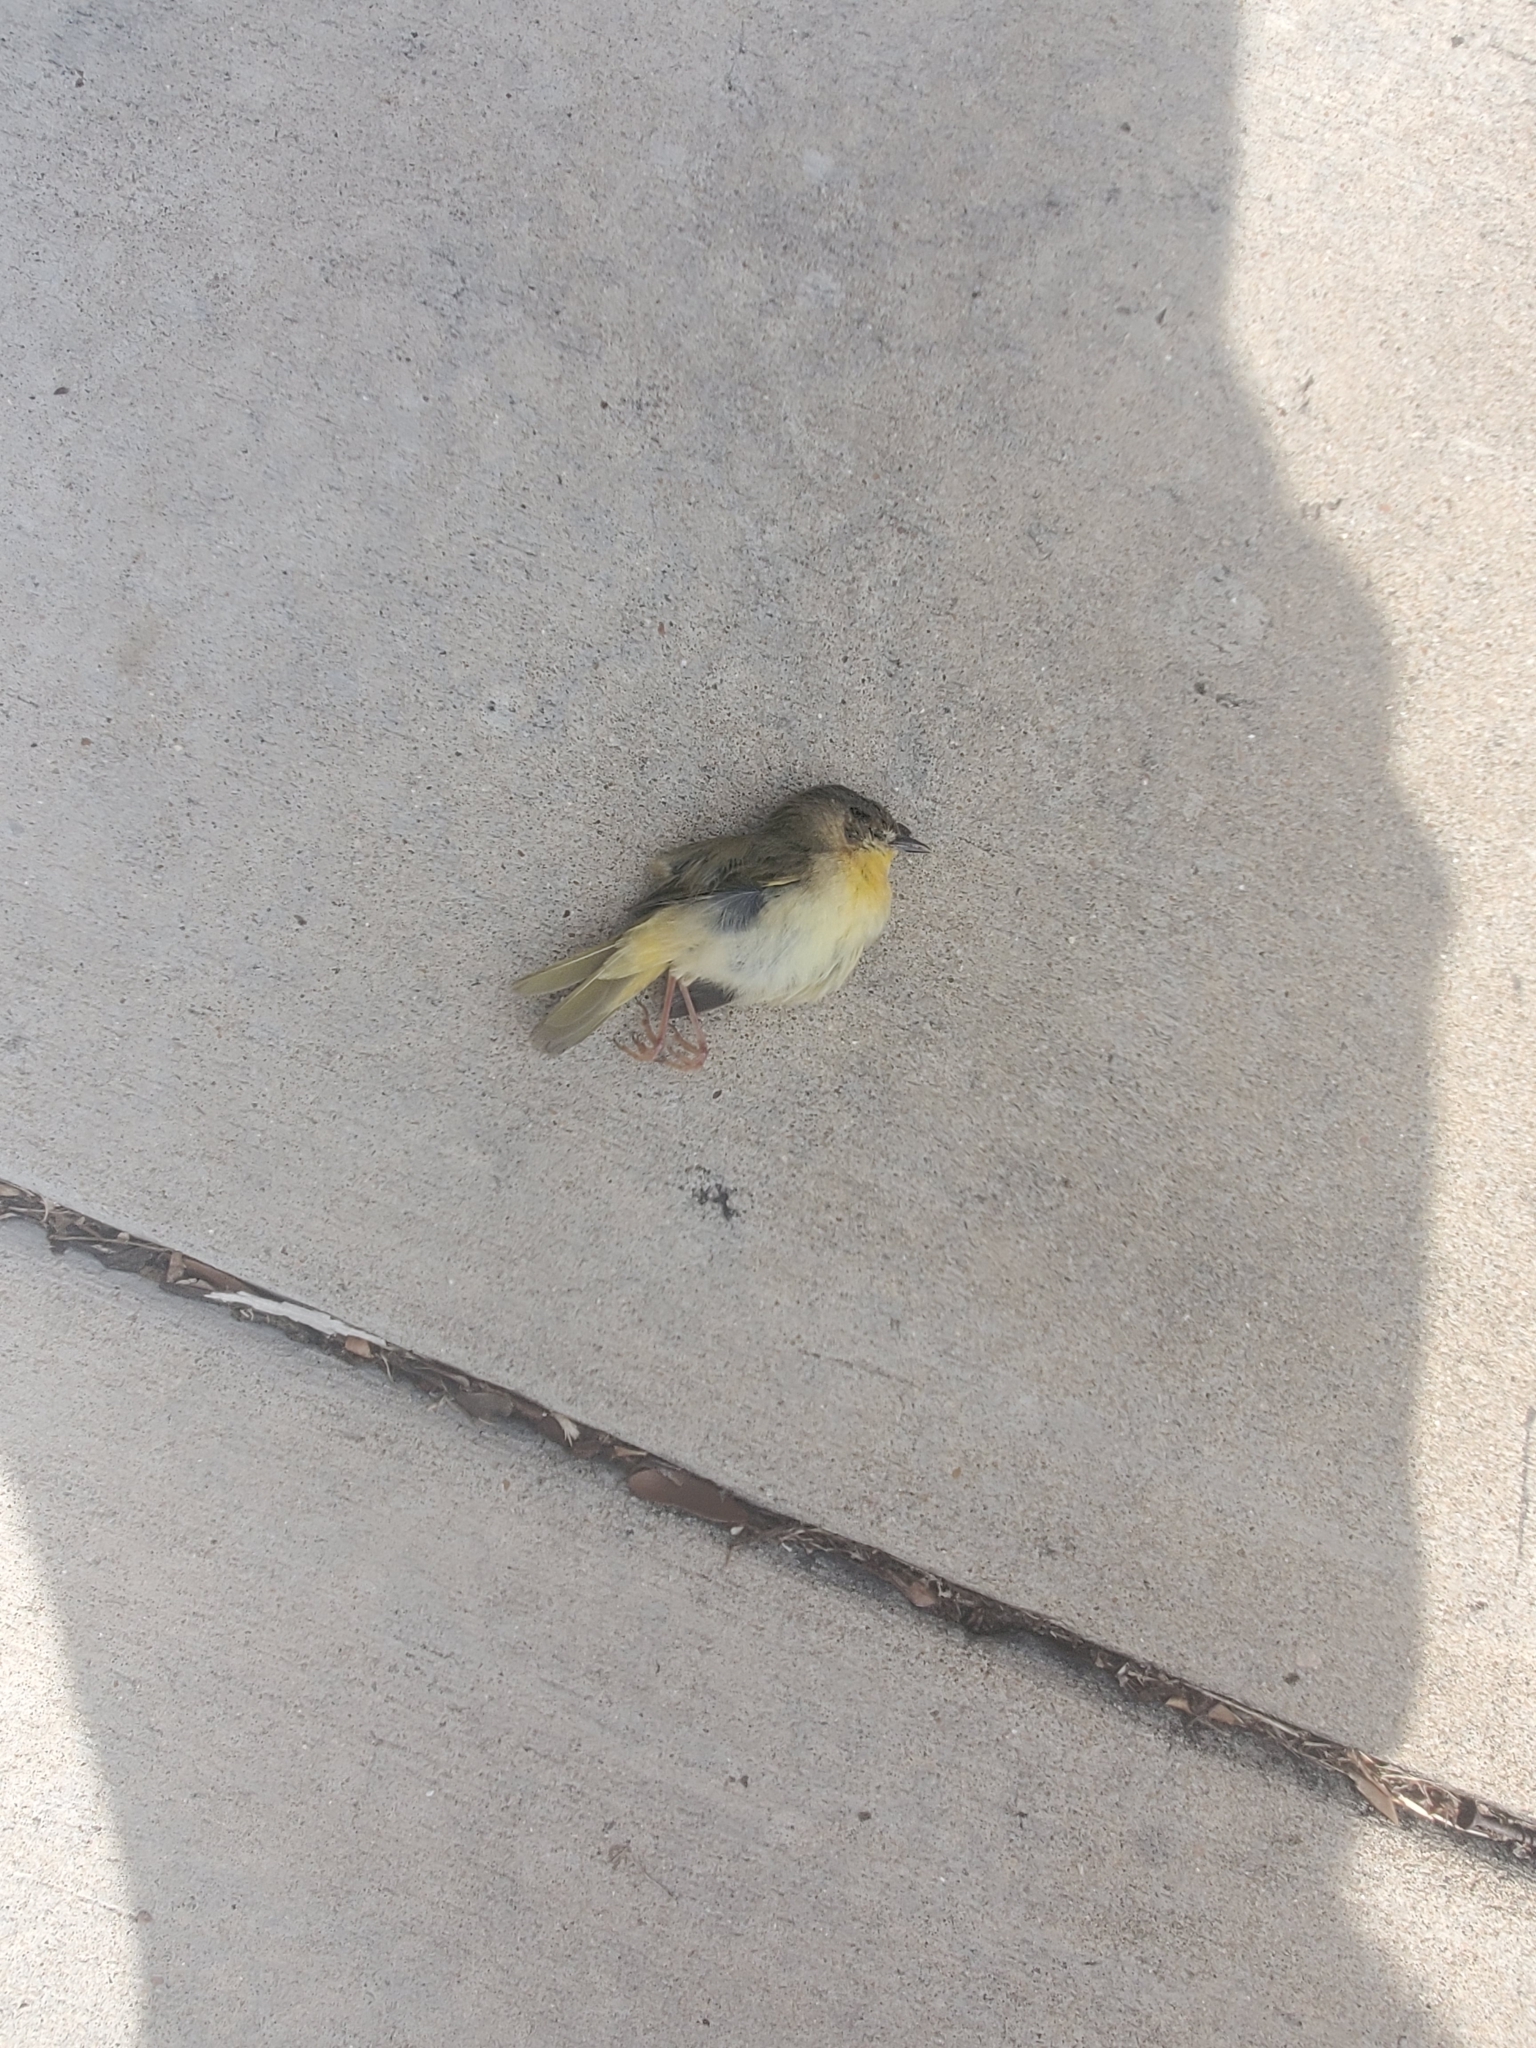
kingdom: Animalia
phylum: Chordata
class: Aves
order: Passeriformes
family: Parulidae
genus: Geothlypis
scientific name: Geothlypis trichas
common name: Common yellowthroat
